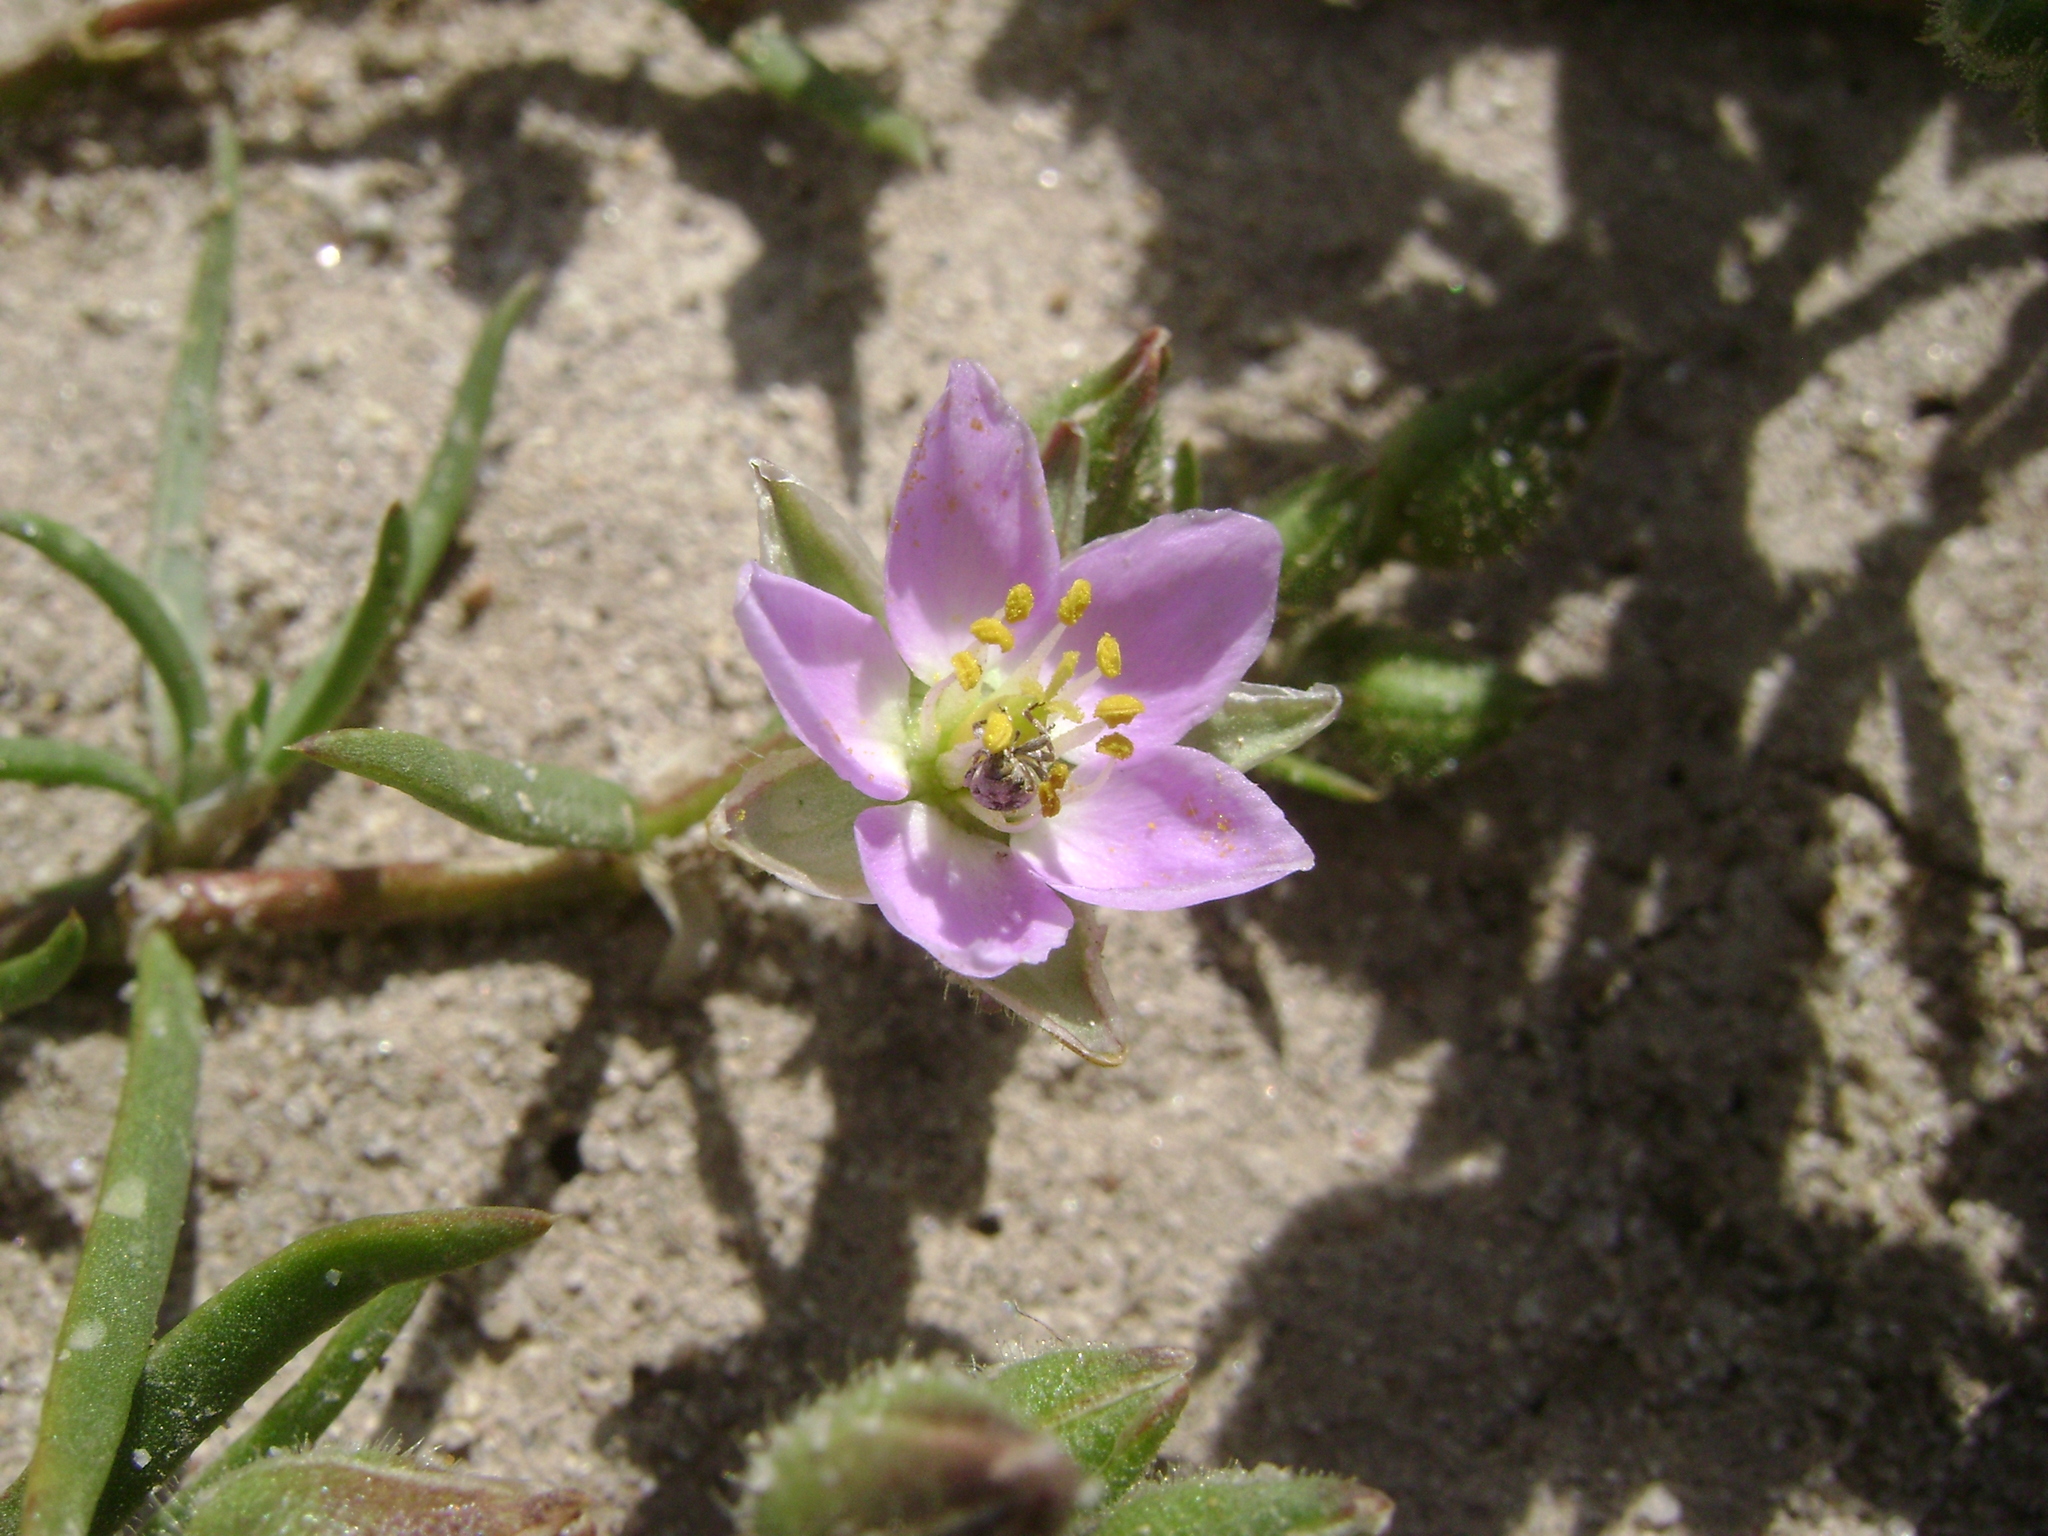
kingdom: Plantae
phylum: Tracheophyta
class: Magnoliopsida
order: Caryophyllales
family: Caryophyllaceae
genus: Spergularia
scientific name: Spergularia macrotheca
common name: Beach sand-spurrey
